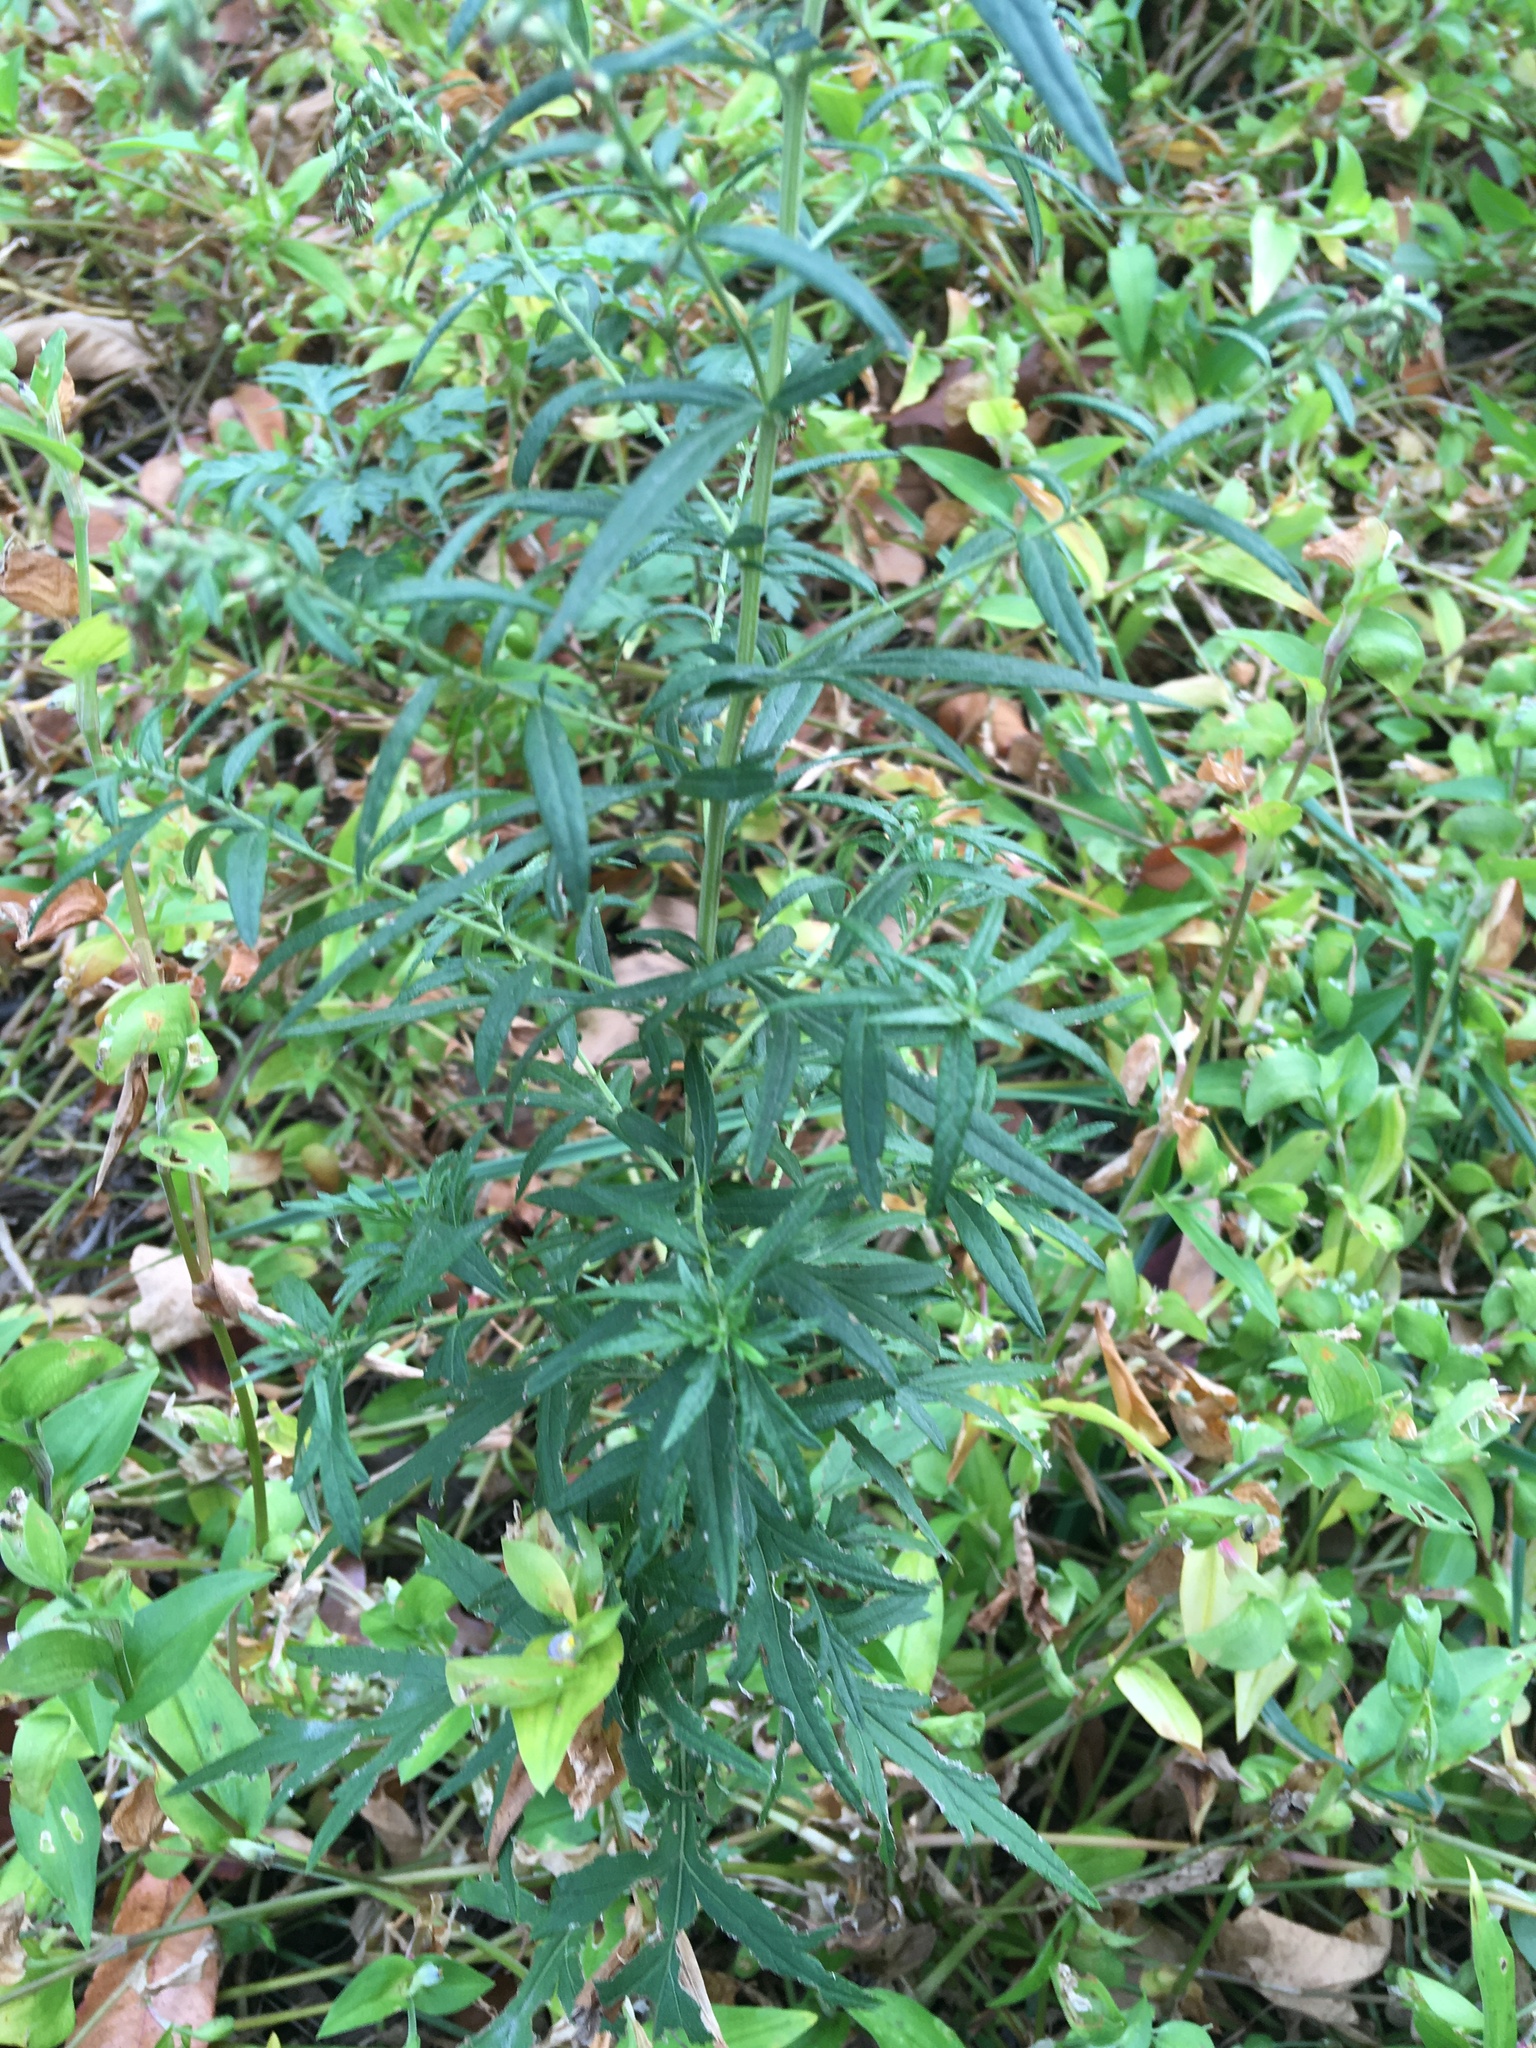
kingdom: Plantae
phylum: Tracheophyta
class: Magnoliopsida
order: Asterales
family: Asteraceae
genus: Artemisia
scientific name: Artemisia vulgaris
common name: Mugwort
